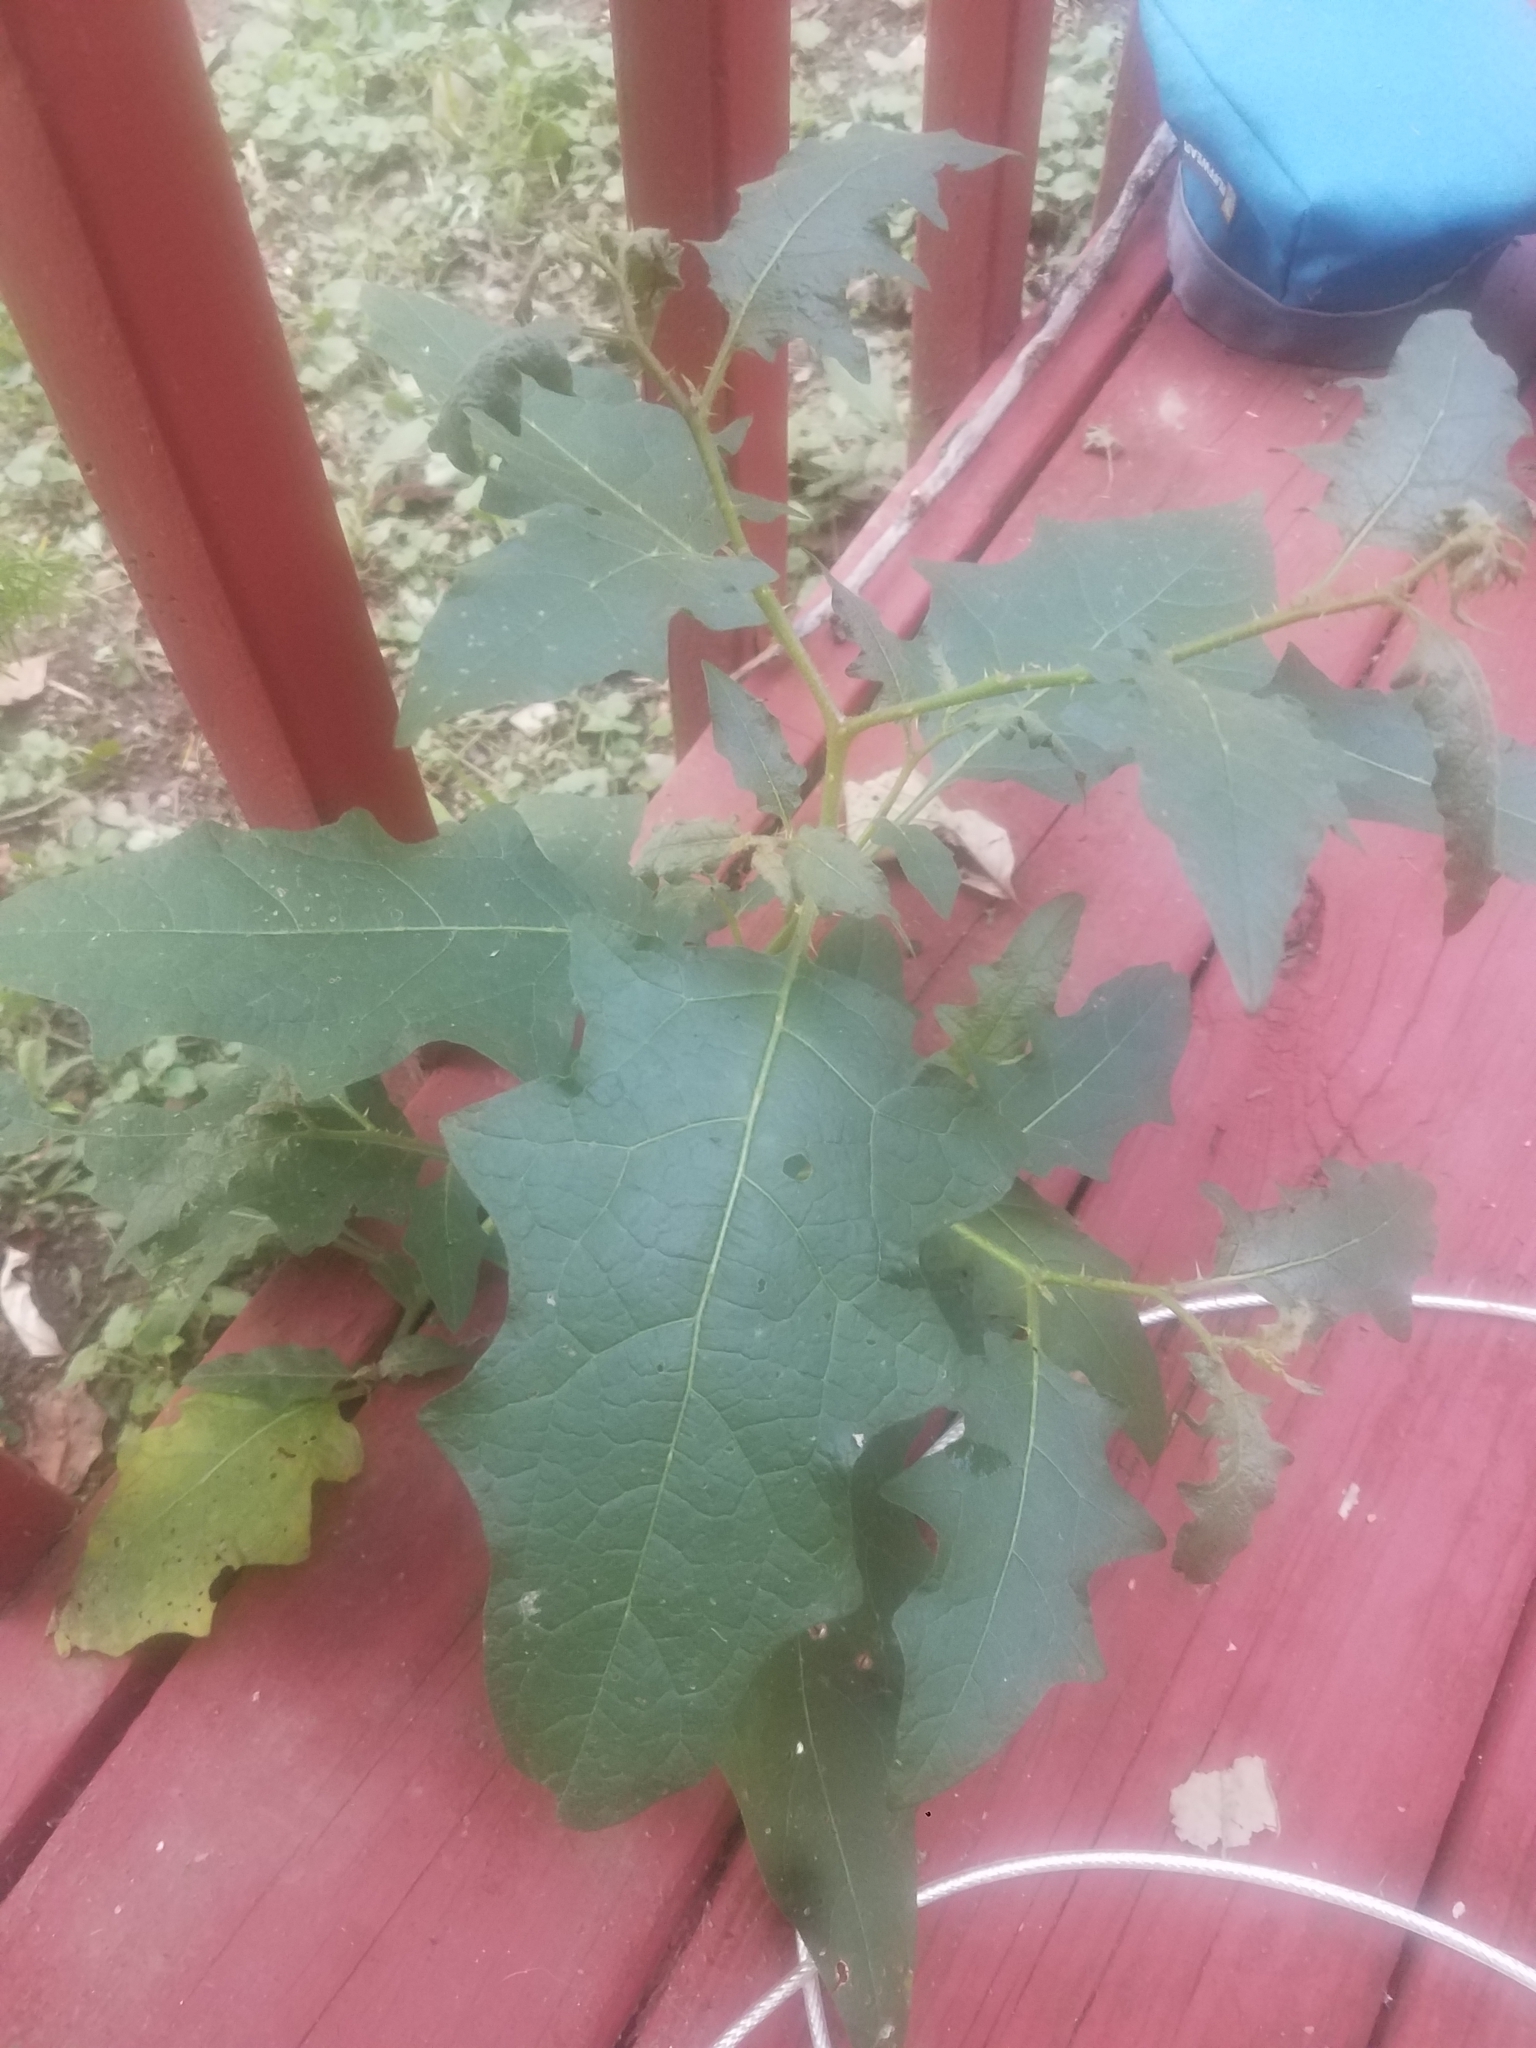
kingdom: Plantae
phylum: Tracheophyta
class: Magnoliopsida
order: Solanales
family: Solanaceae
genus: Solanum
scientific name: Solanum carolinense
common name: Horse-nettle
